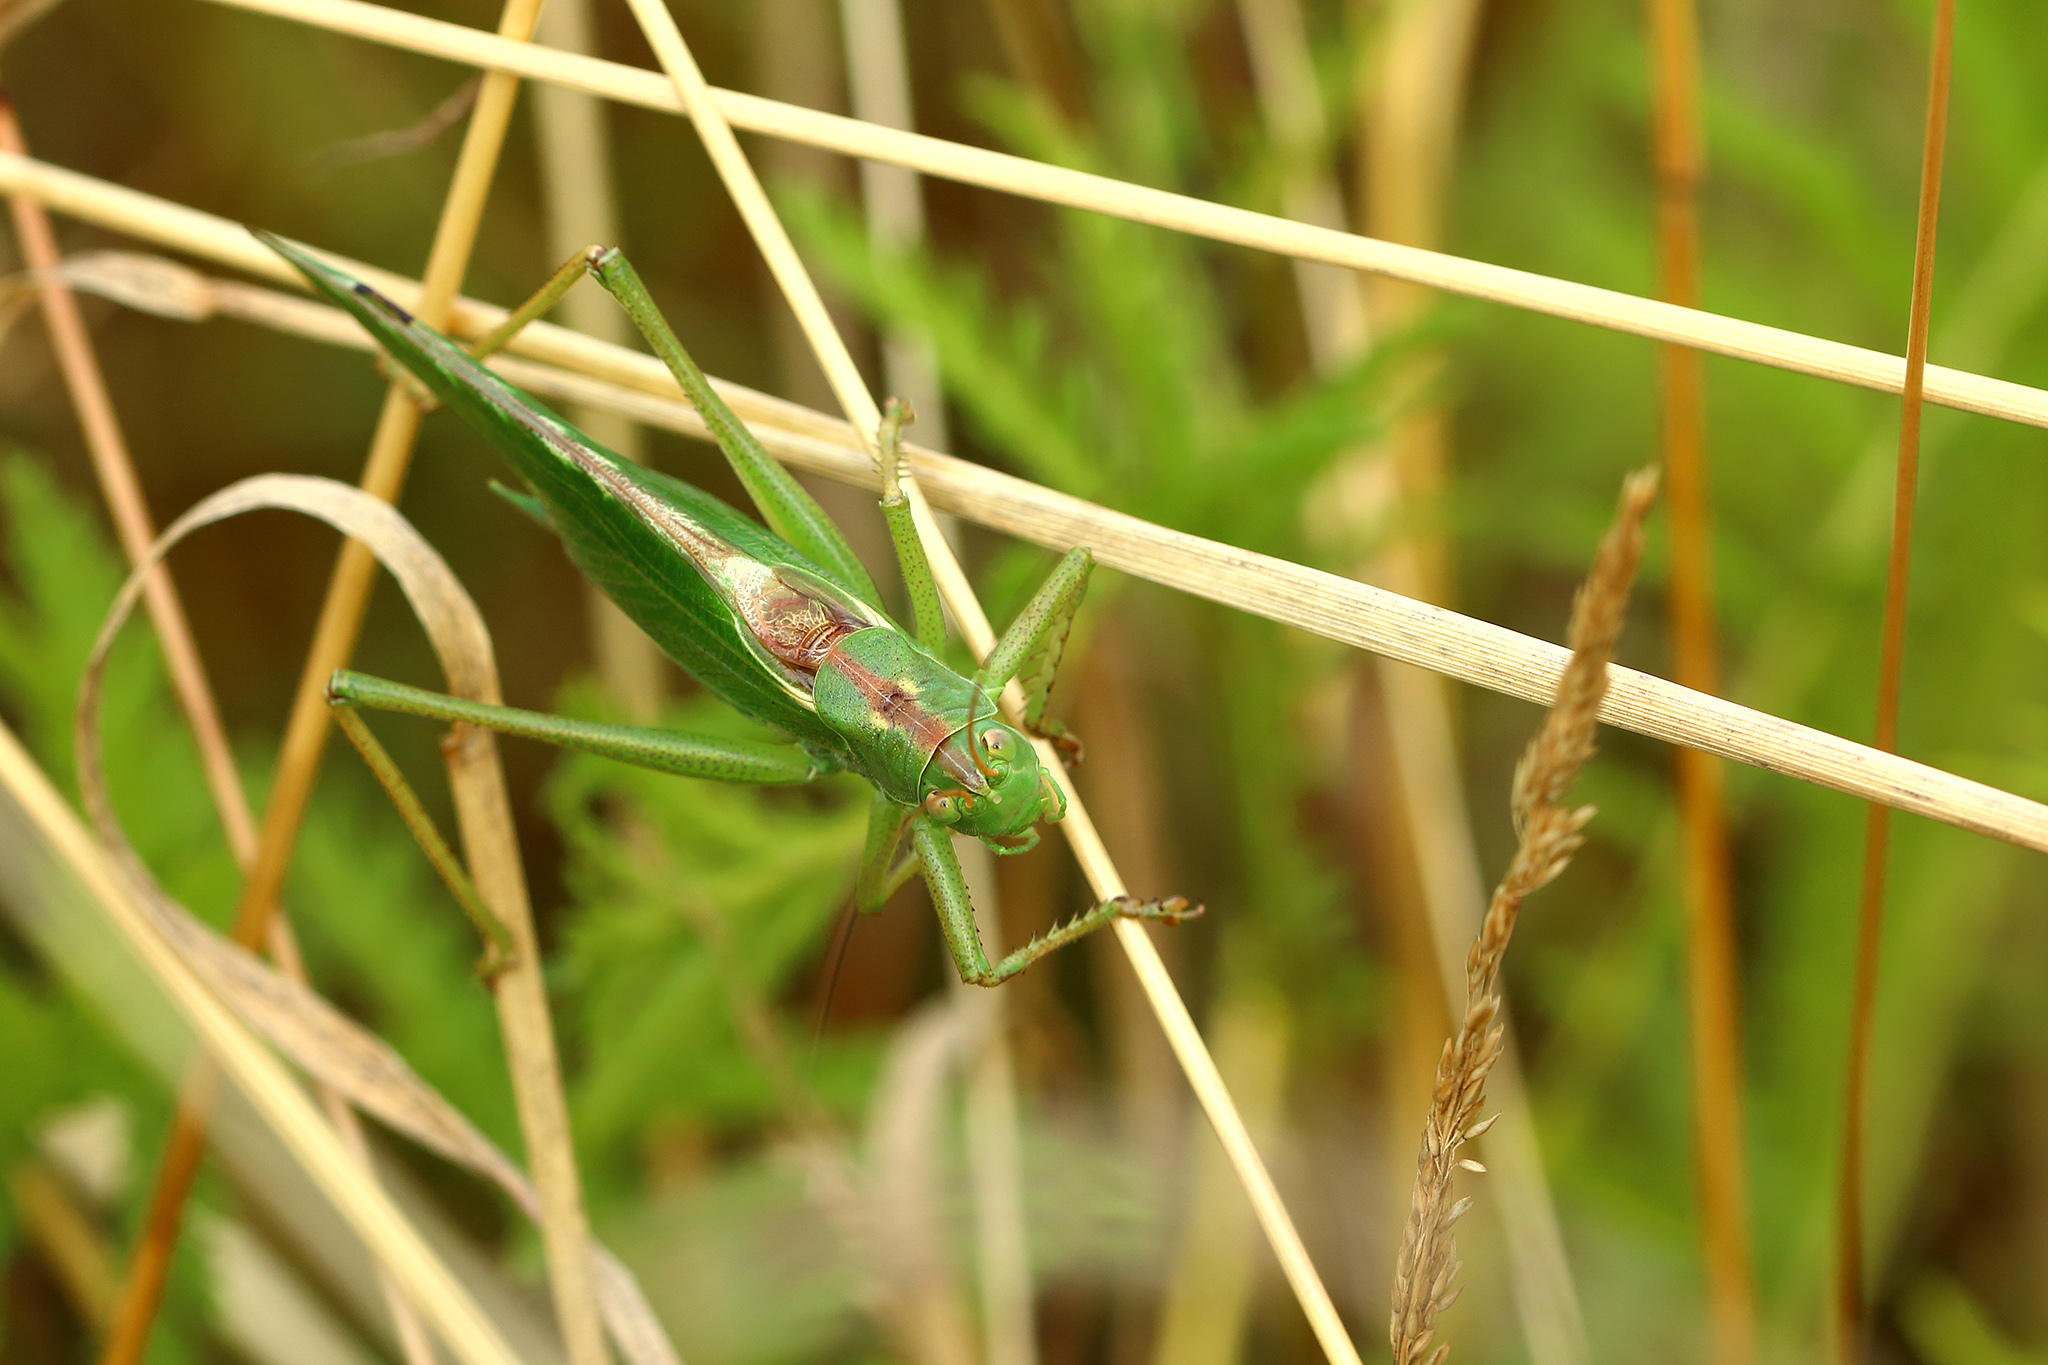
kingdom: Animalia
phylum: Arthropoda
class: Insecta
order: Orthoptera
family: Tettigoniidae
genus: Tettigonia
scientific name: Tettigonia viridissima
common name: Great green bush-cricket
